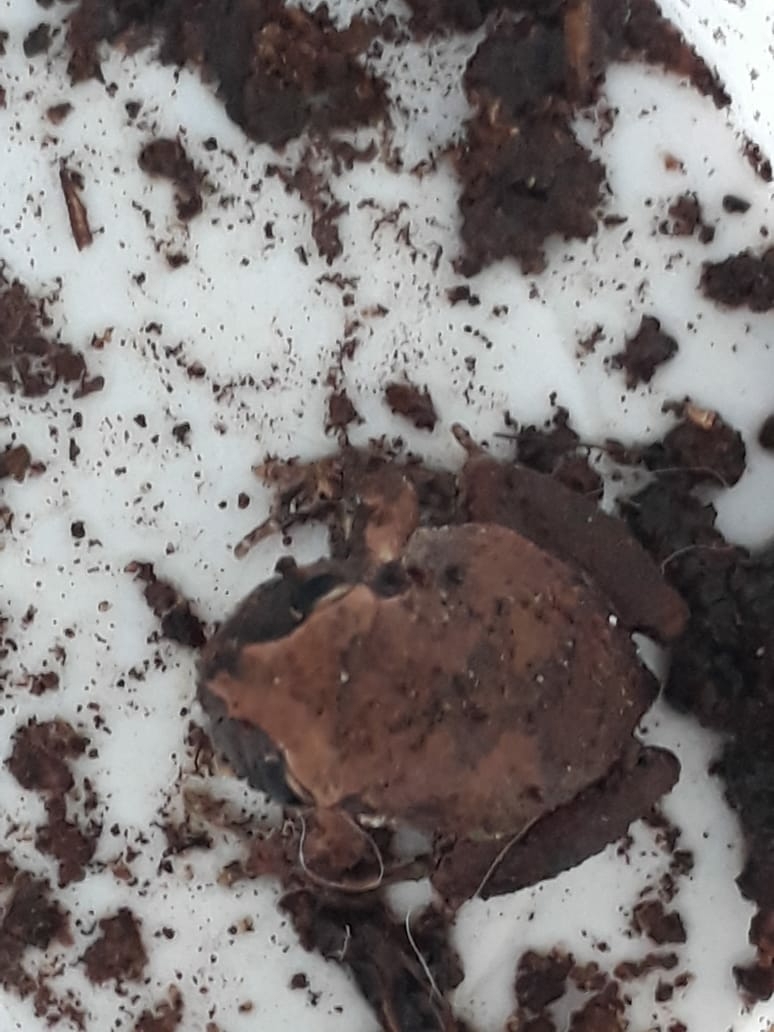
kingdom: Animalia
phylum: Chordata
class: Amphibia
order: Anura
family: Arthroleptidae
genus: Arthroleptis
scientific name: Arthroleptis wahlbergii
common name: Bush squeaker
